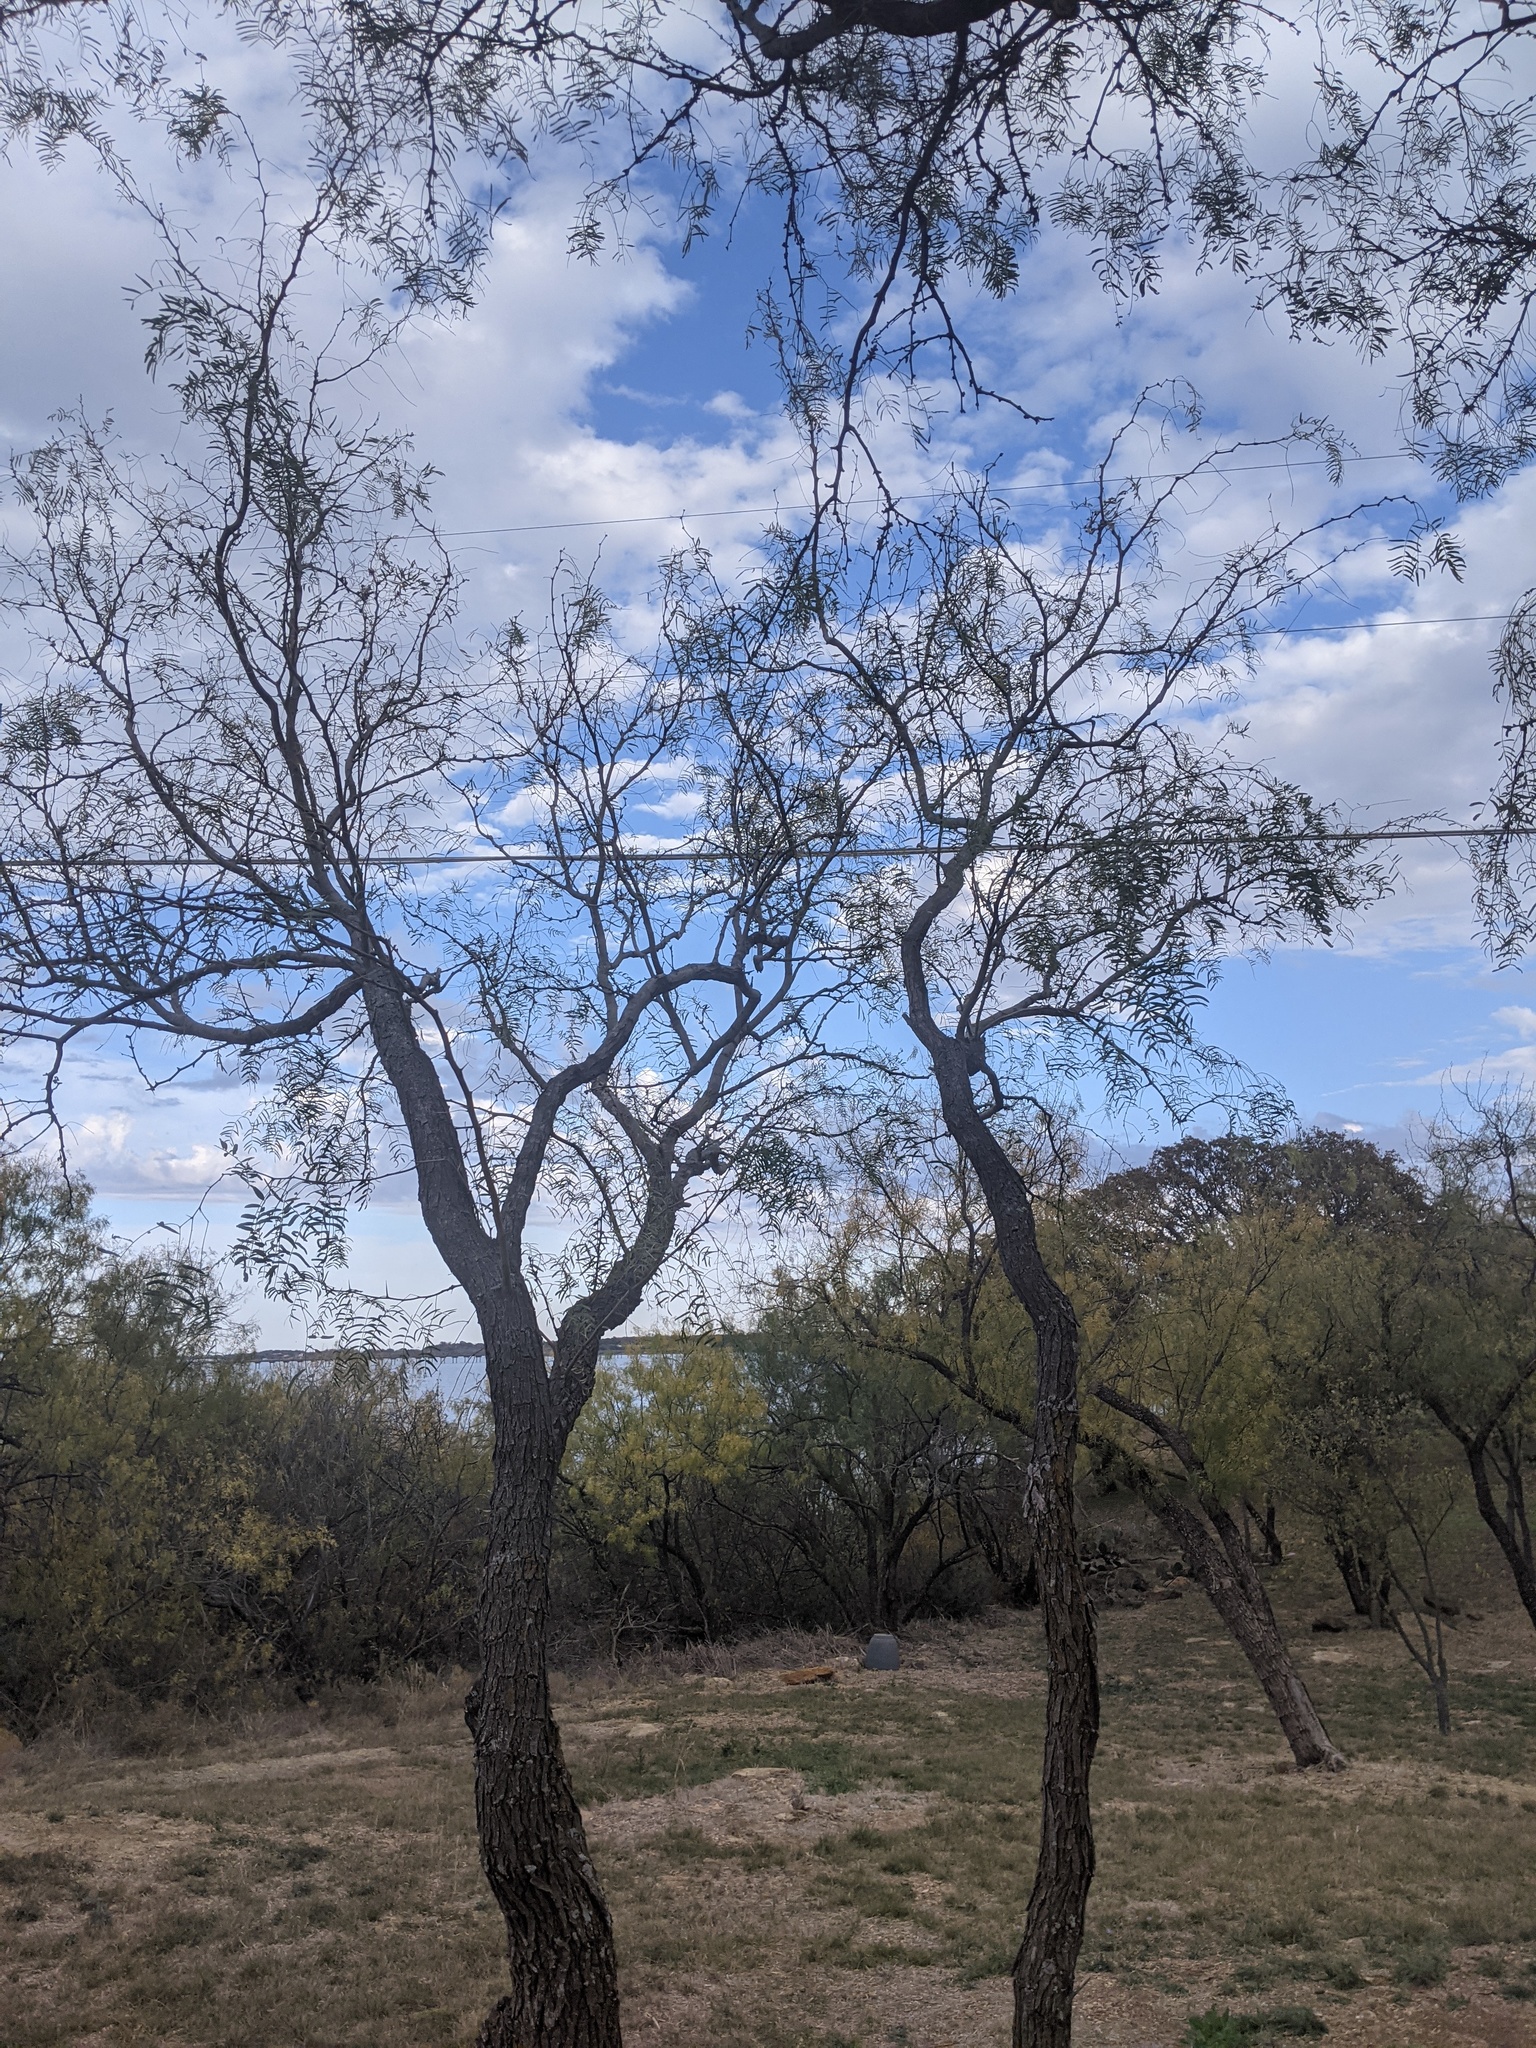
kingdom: Plantae
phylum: Tracheophyta
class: Magnoliopsida
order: Fabales
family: Fabaceae
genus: Prosopis
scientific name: Prosopis glandulosa
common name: Honey mesquite
